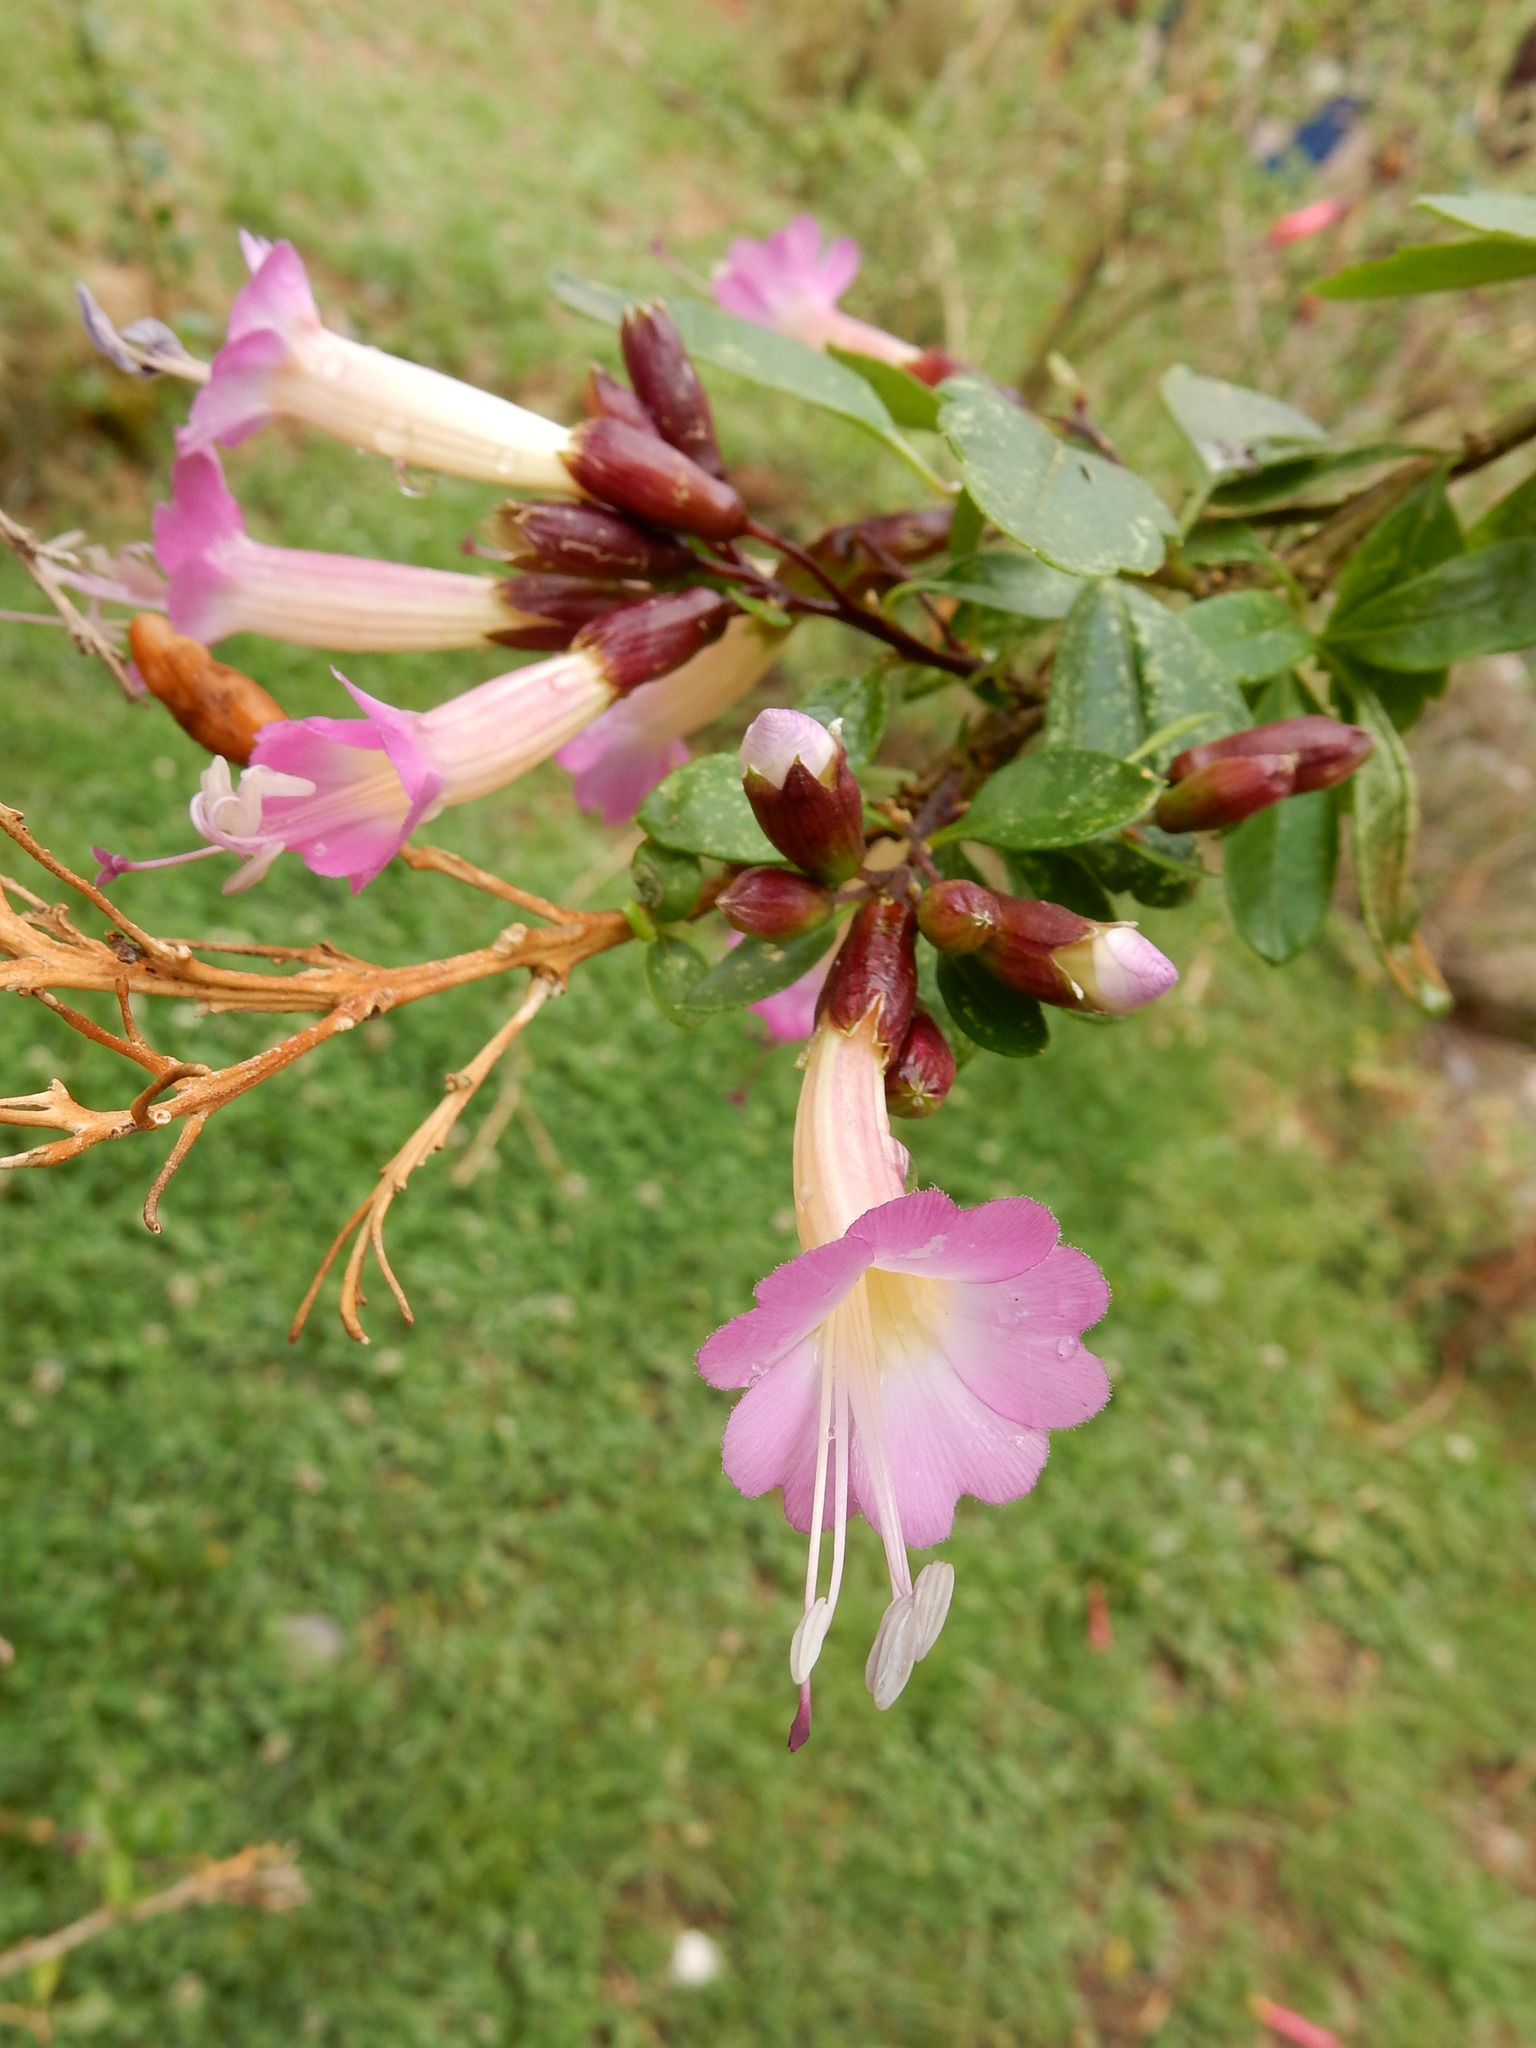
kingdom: Plantae
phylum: Tracheophyta
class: Magnoliopsida
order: Ericales
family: Polemoniaceae
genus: Cantua
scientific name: Cantua buxifolia
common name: Sacred-flower-of-the-incas
